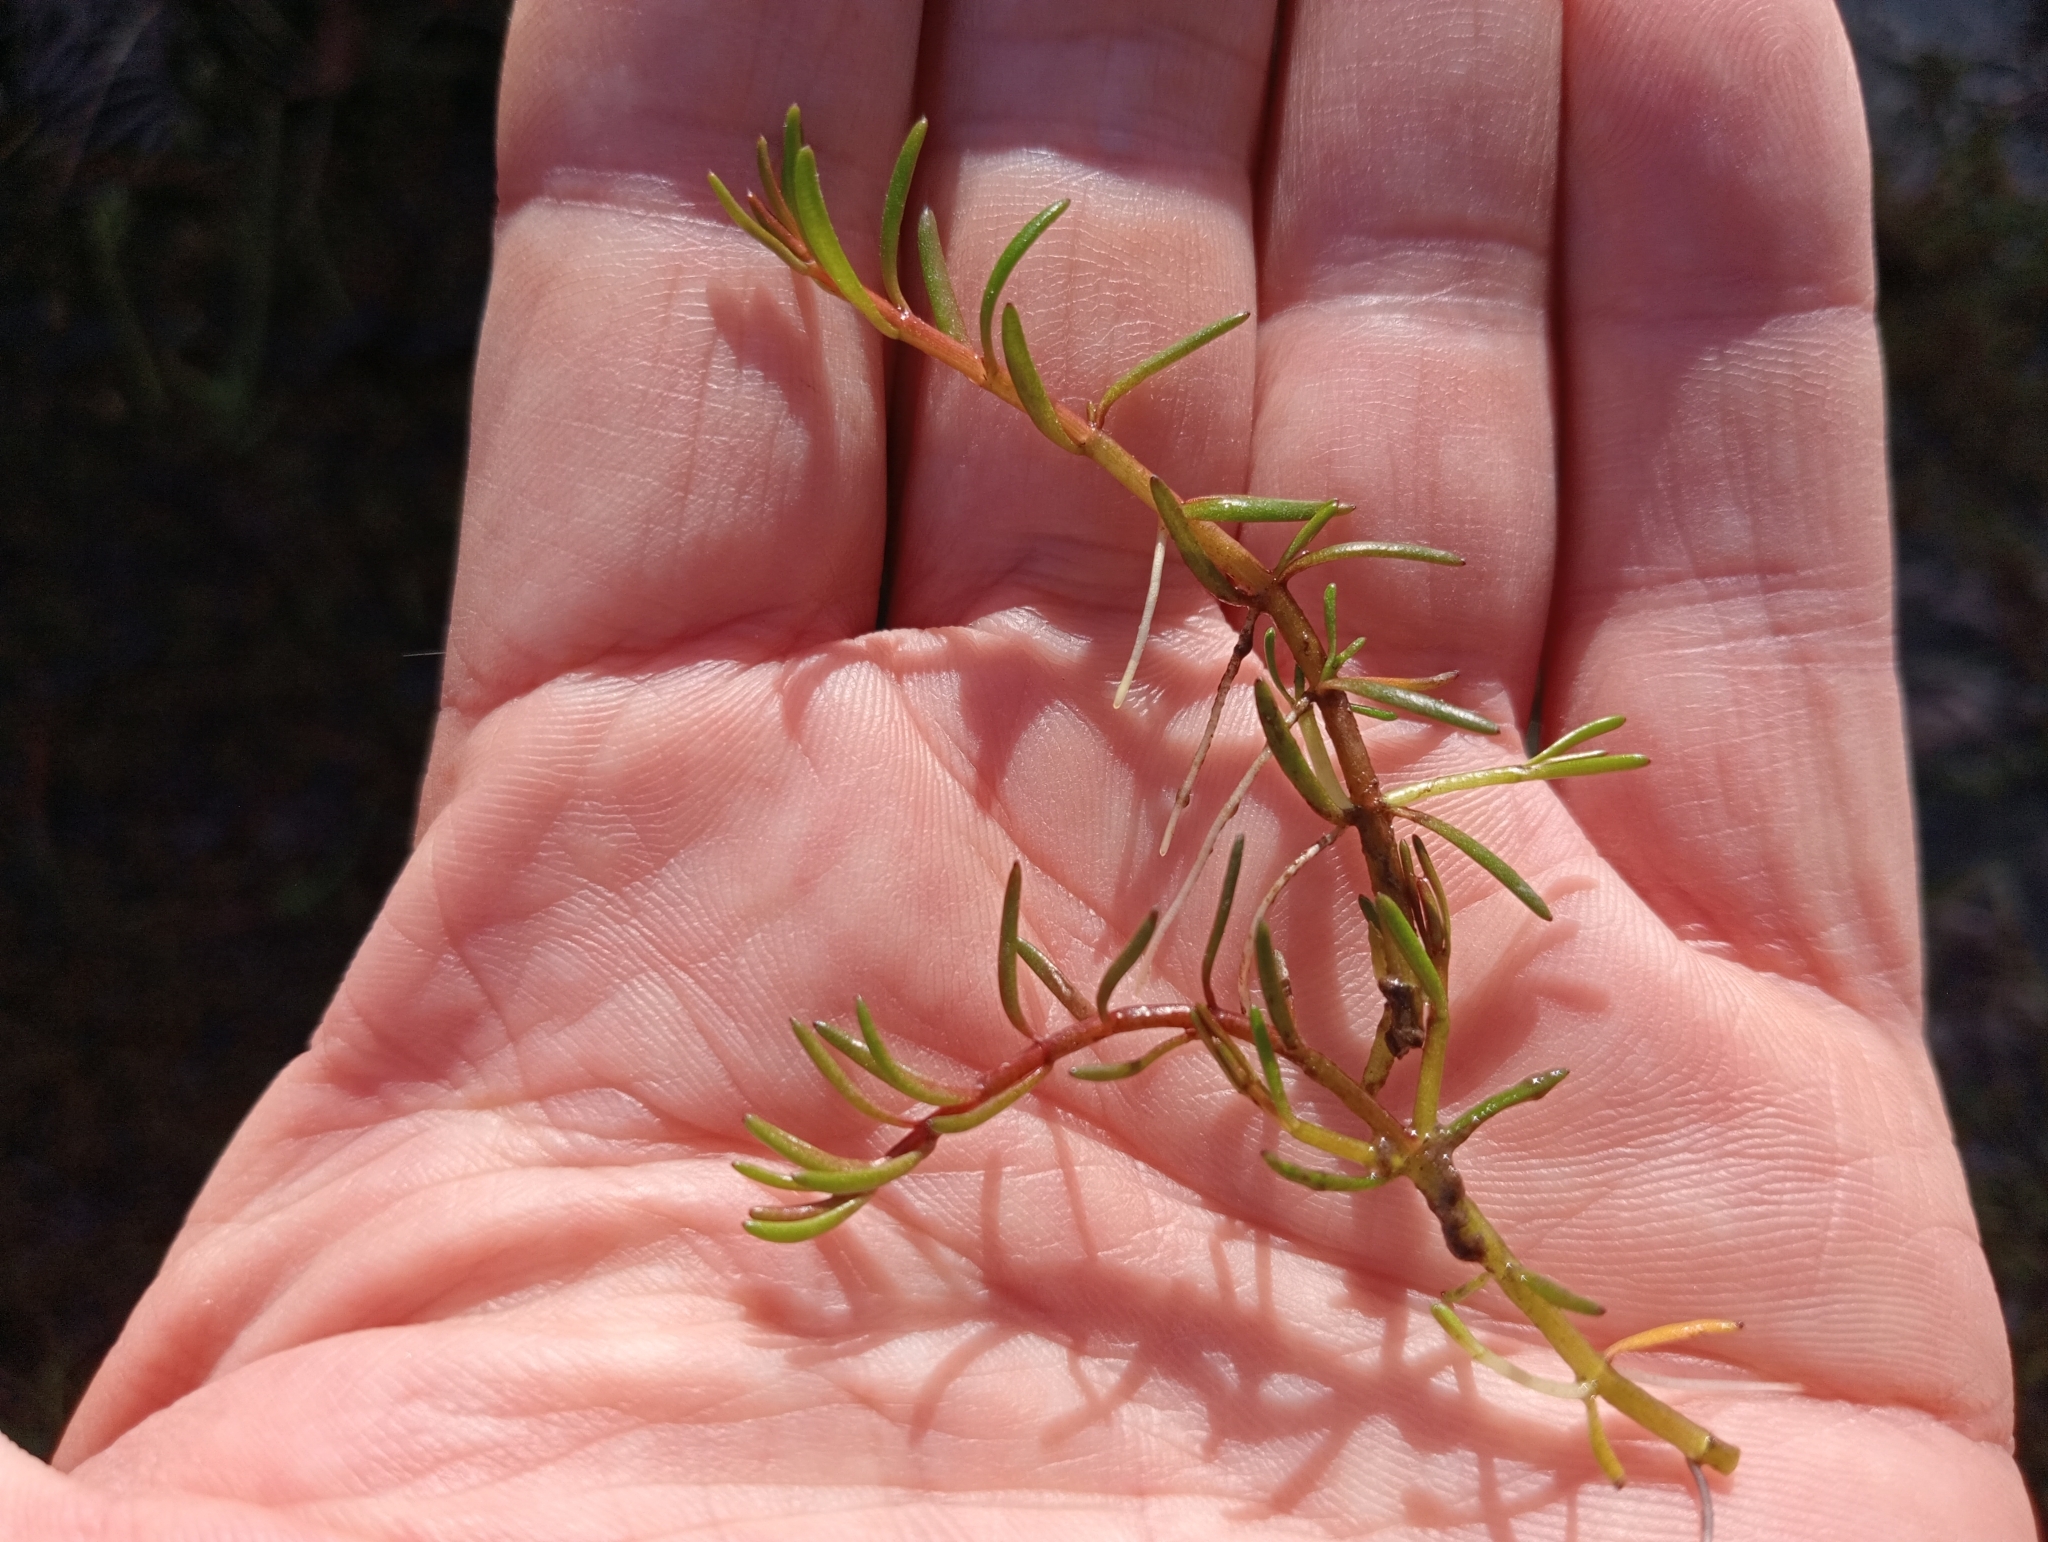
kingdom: Plantae
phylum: Tracheophyta
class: Magnoliopsida
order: Saxifragales
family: Haloragaceae
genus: Myriophyllum
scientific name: Myriophyllum pedunculatum
